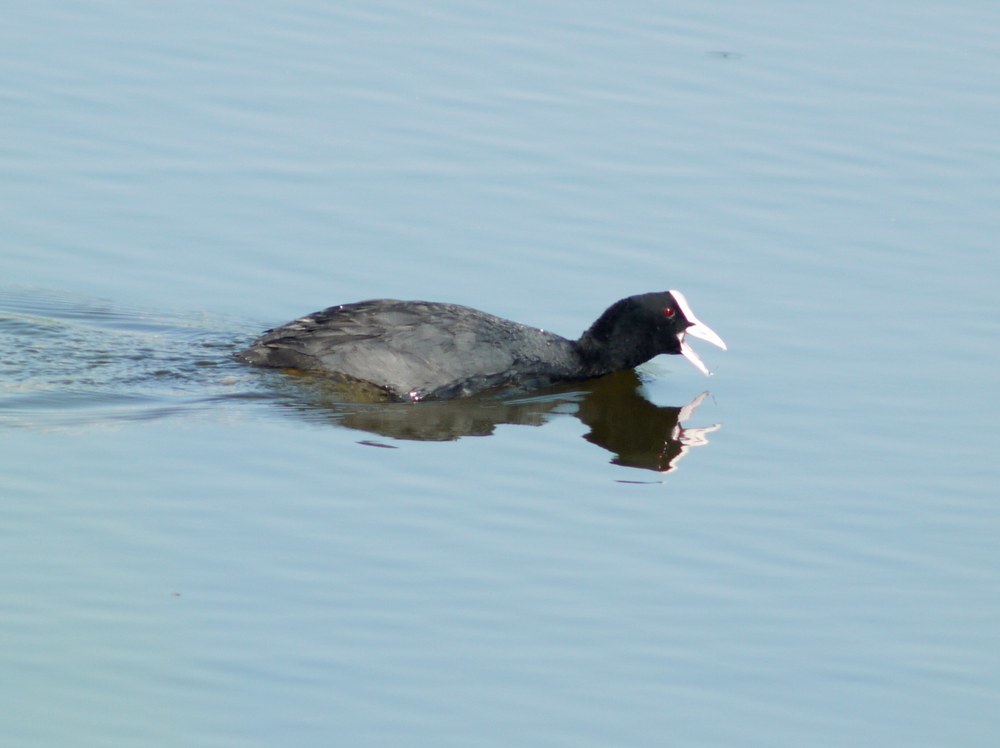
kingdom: Animalia
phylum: Chordata
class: Aves
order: Gruiformes
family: Rallidae
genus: Fulica
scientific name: Fulica atra
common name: Eurasian coot
